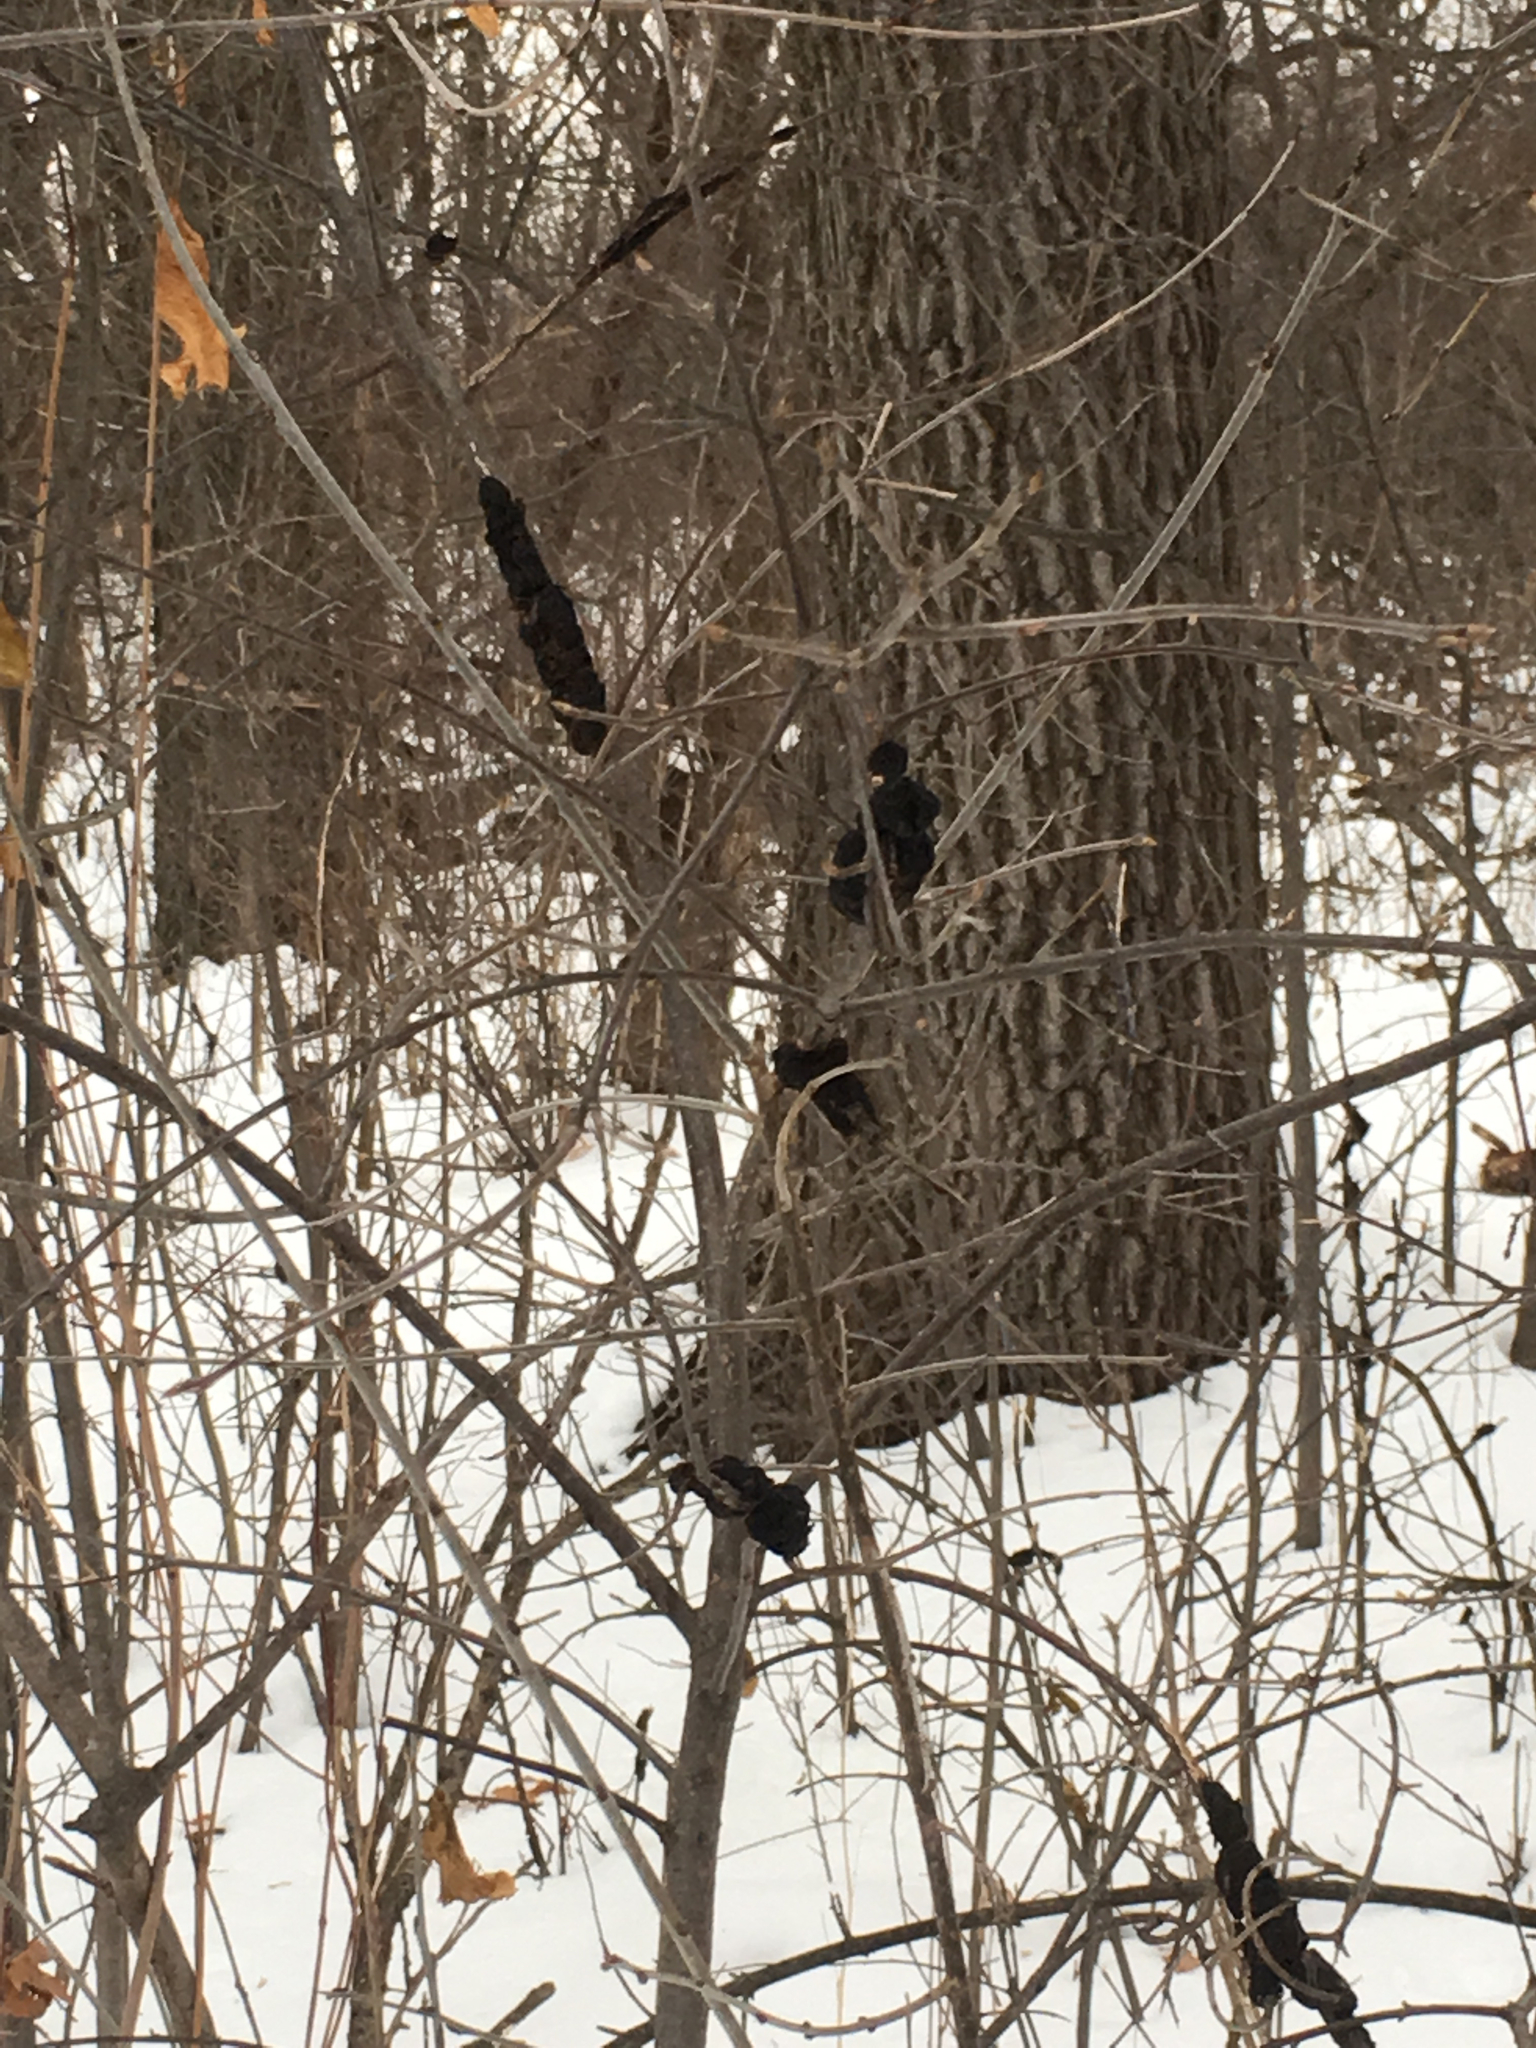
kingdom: Fungi
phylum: Ascomycota
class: Dothideomycetes
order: Venturiales
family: Venturiaceae
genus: Apiosporina
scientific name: Apiosporina morbosa
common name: Black knot
